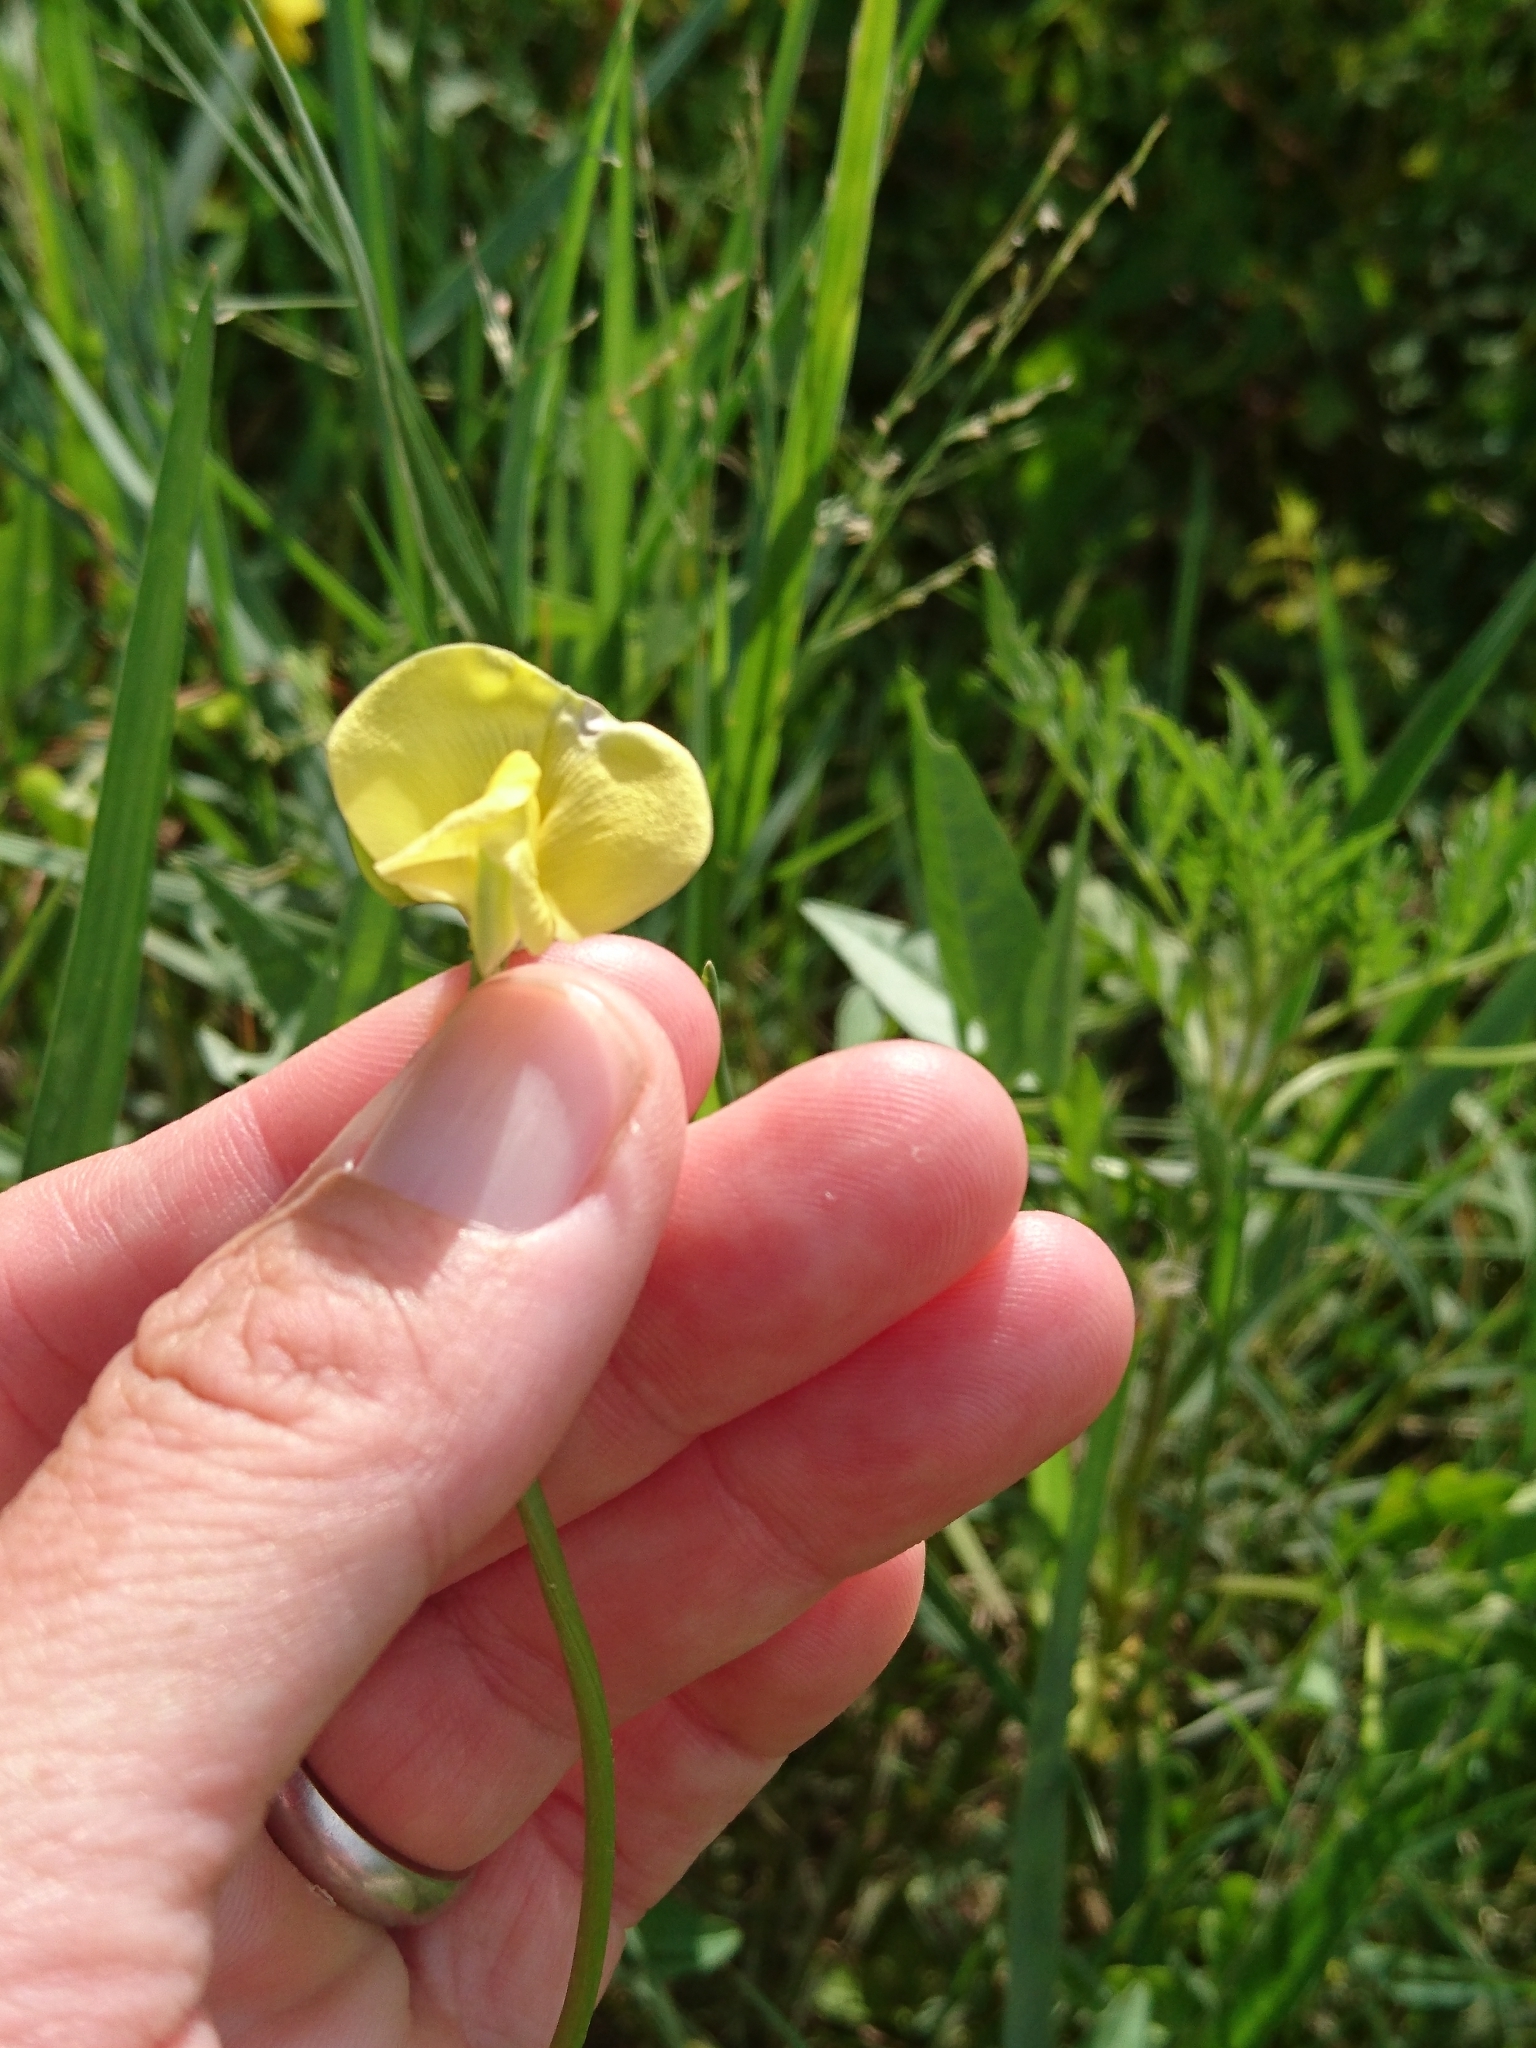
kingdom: Plantae
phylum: Tracheophyta
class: Magnoliopsida
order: Fabales
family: Fabaceae
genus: Vigna
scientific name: Vigna luteola
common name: Hairypod cowpea
